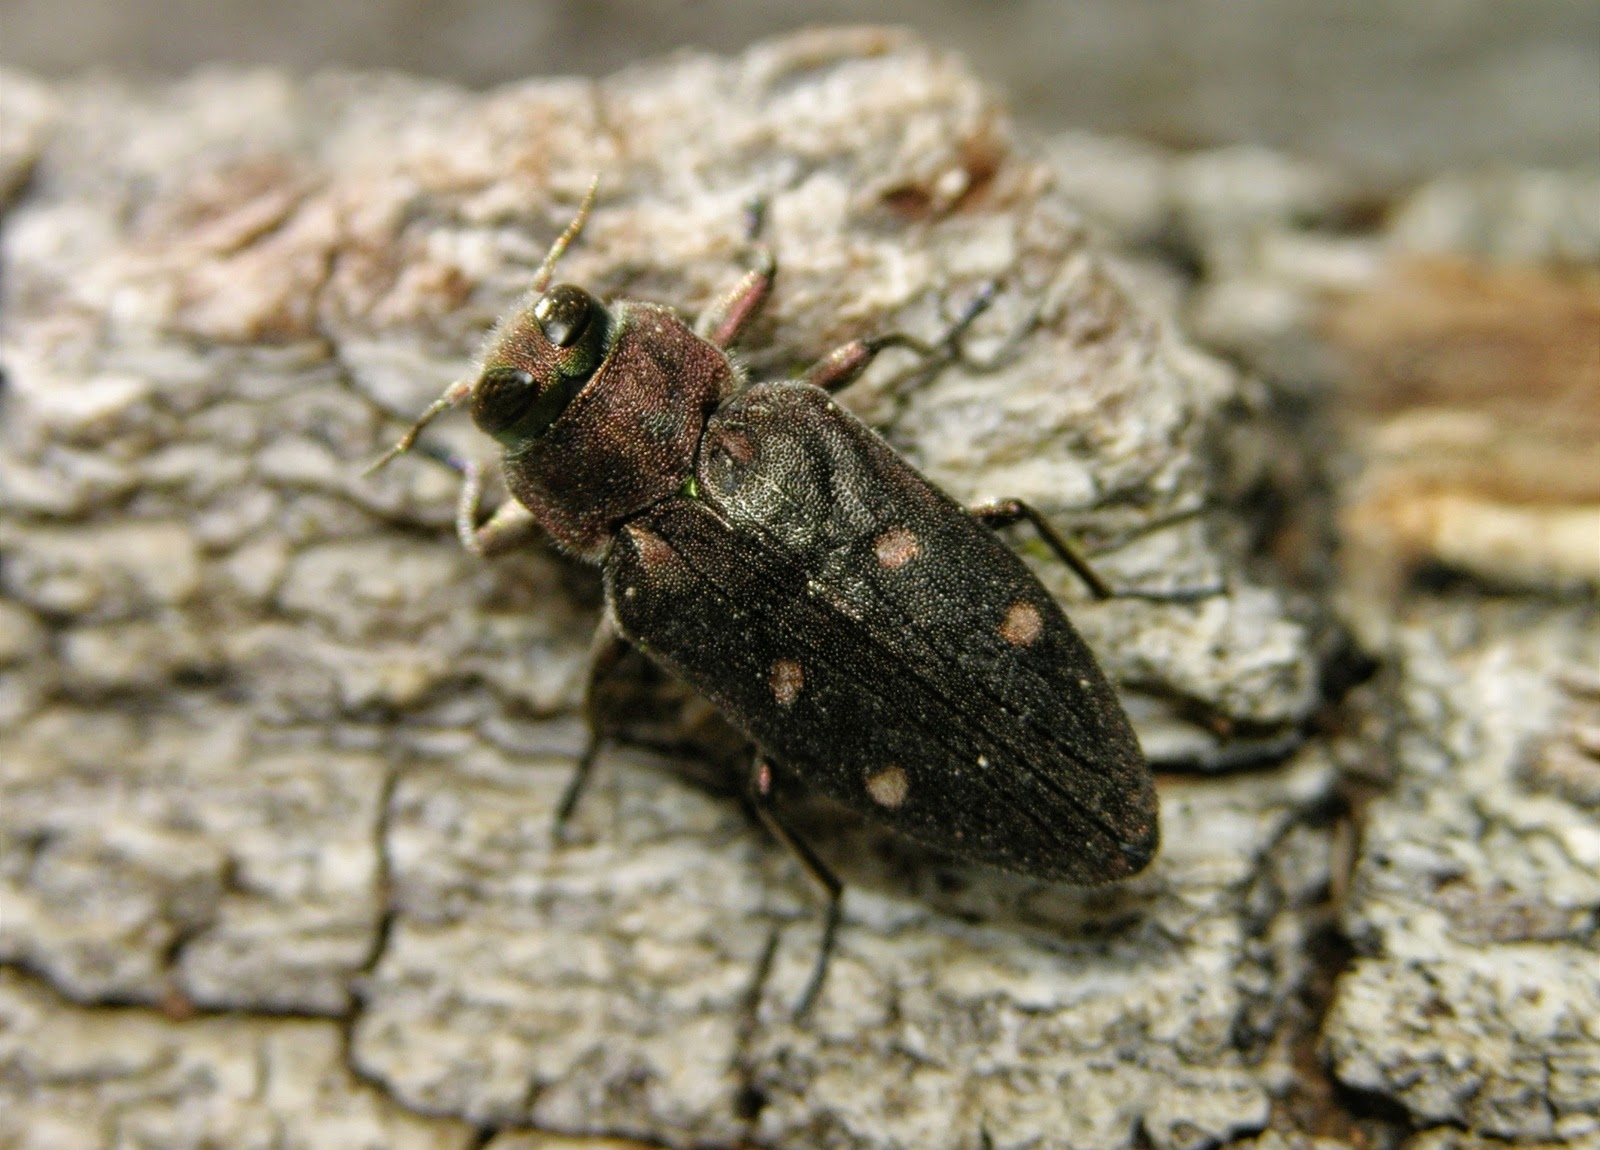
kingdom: Animalia
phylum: Arthropoda
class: Insecta
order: Coleoptera
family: Buprestidae
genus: Chrysobothris
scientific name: Chrysobothris affinis
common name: Beetle
